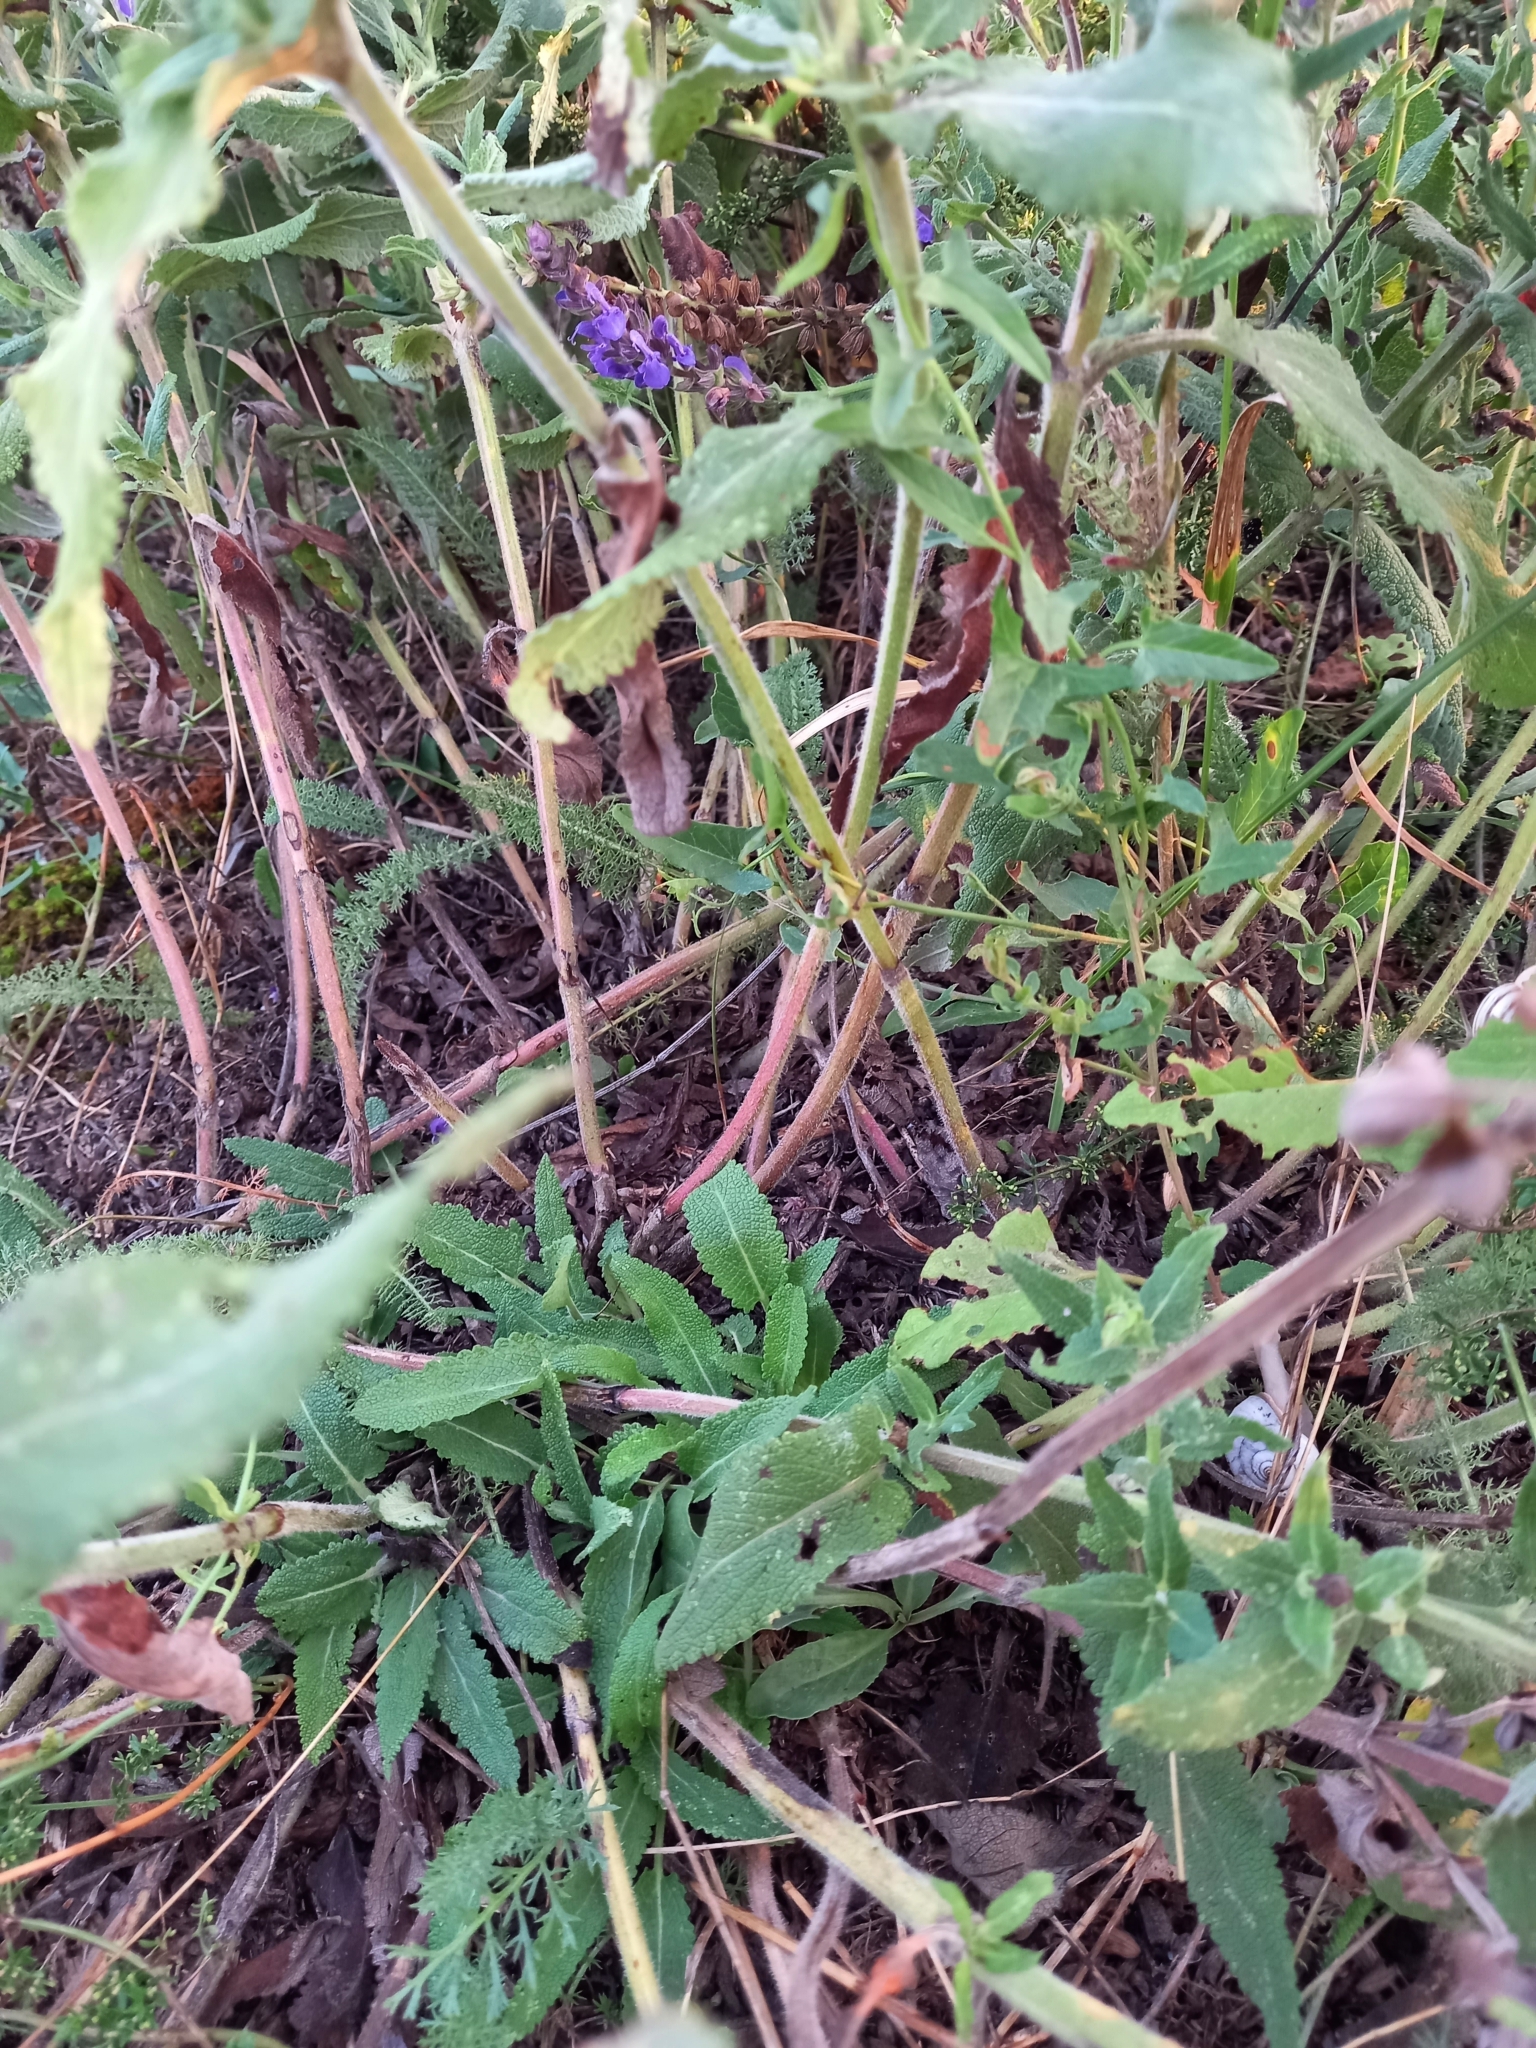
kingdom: Plantae
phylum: Tracheophyta
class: Magnoliopsida
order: Lamiales
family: Lamiaceae
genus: Salvia
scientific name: Salvia nemorosa
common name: Balkan clary
